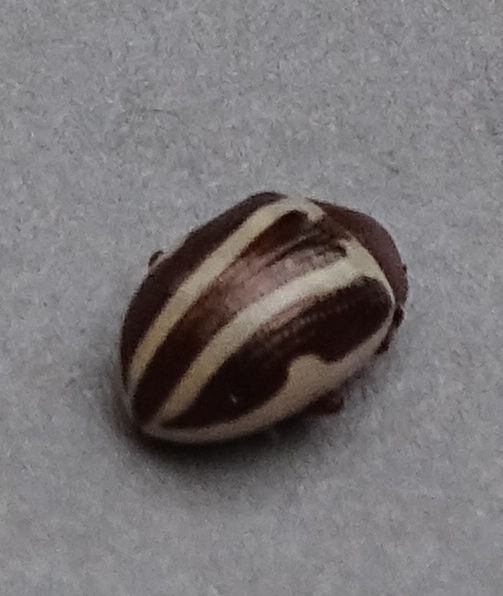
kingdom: Animalia
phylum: Arthropoda
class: Insecta
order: Coleoptera
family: Chrysomelidae
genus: Calligrapha
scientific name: Calligrapha bidenticola
